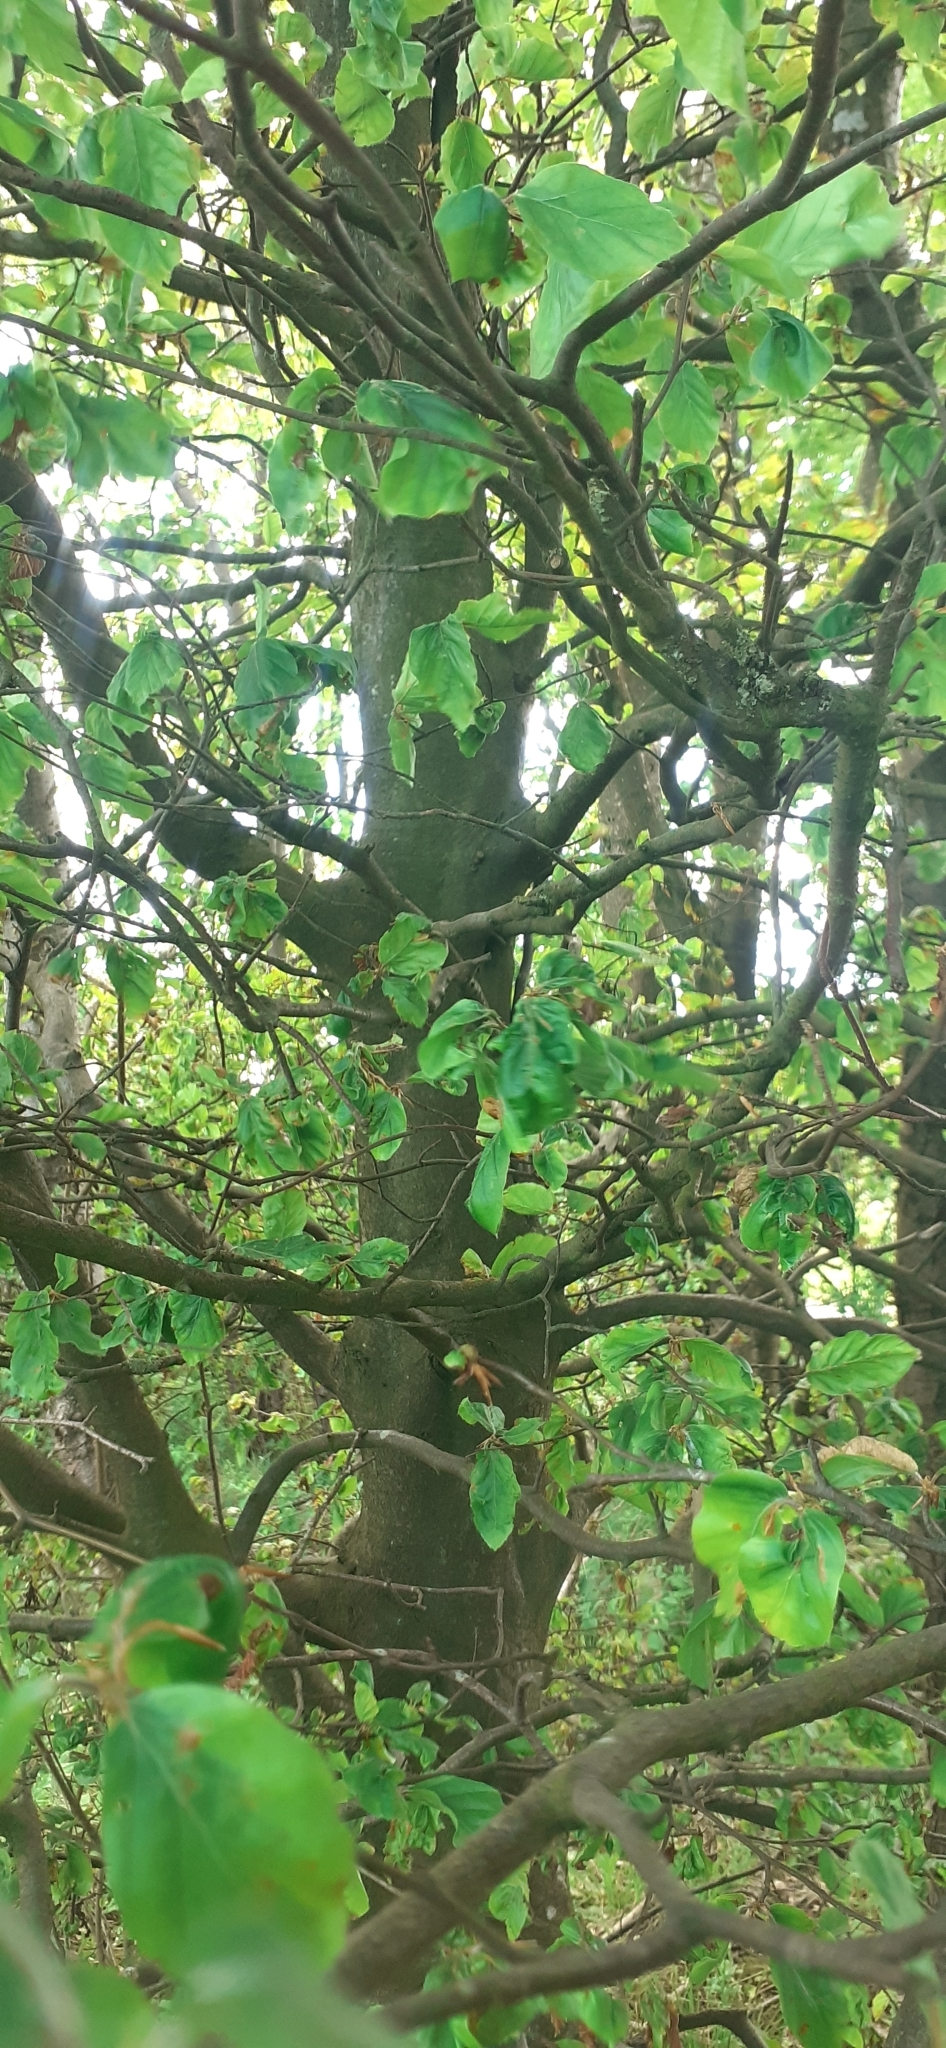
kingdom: Plantae
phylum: Tracheophyta
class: Magnoliopsida
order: Fagales
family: Fagaceae
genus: Fagus
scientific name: Fagus sylvatica
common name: Beech
